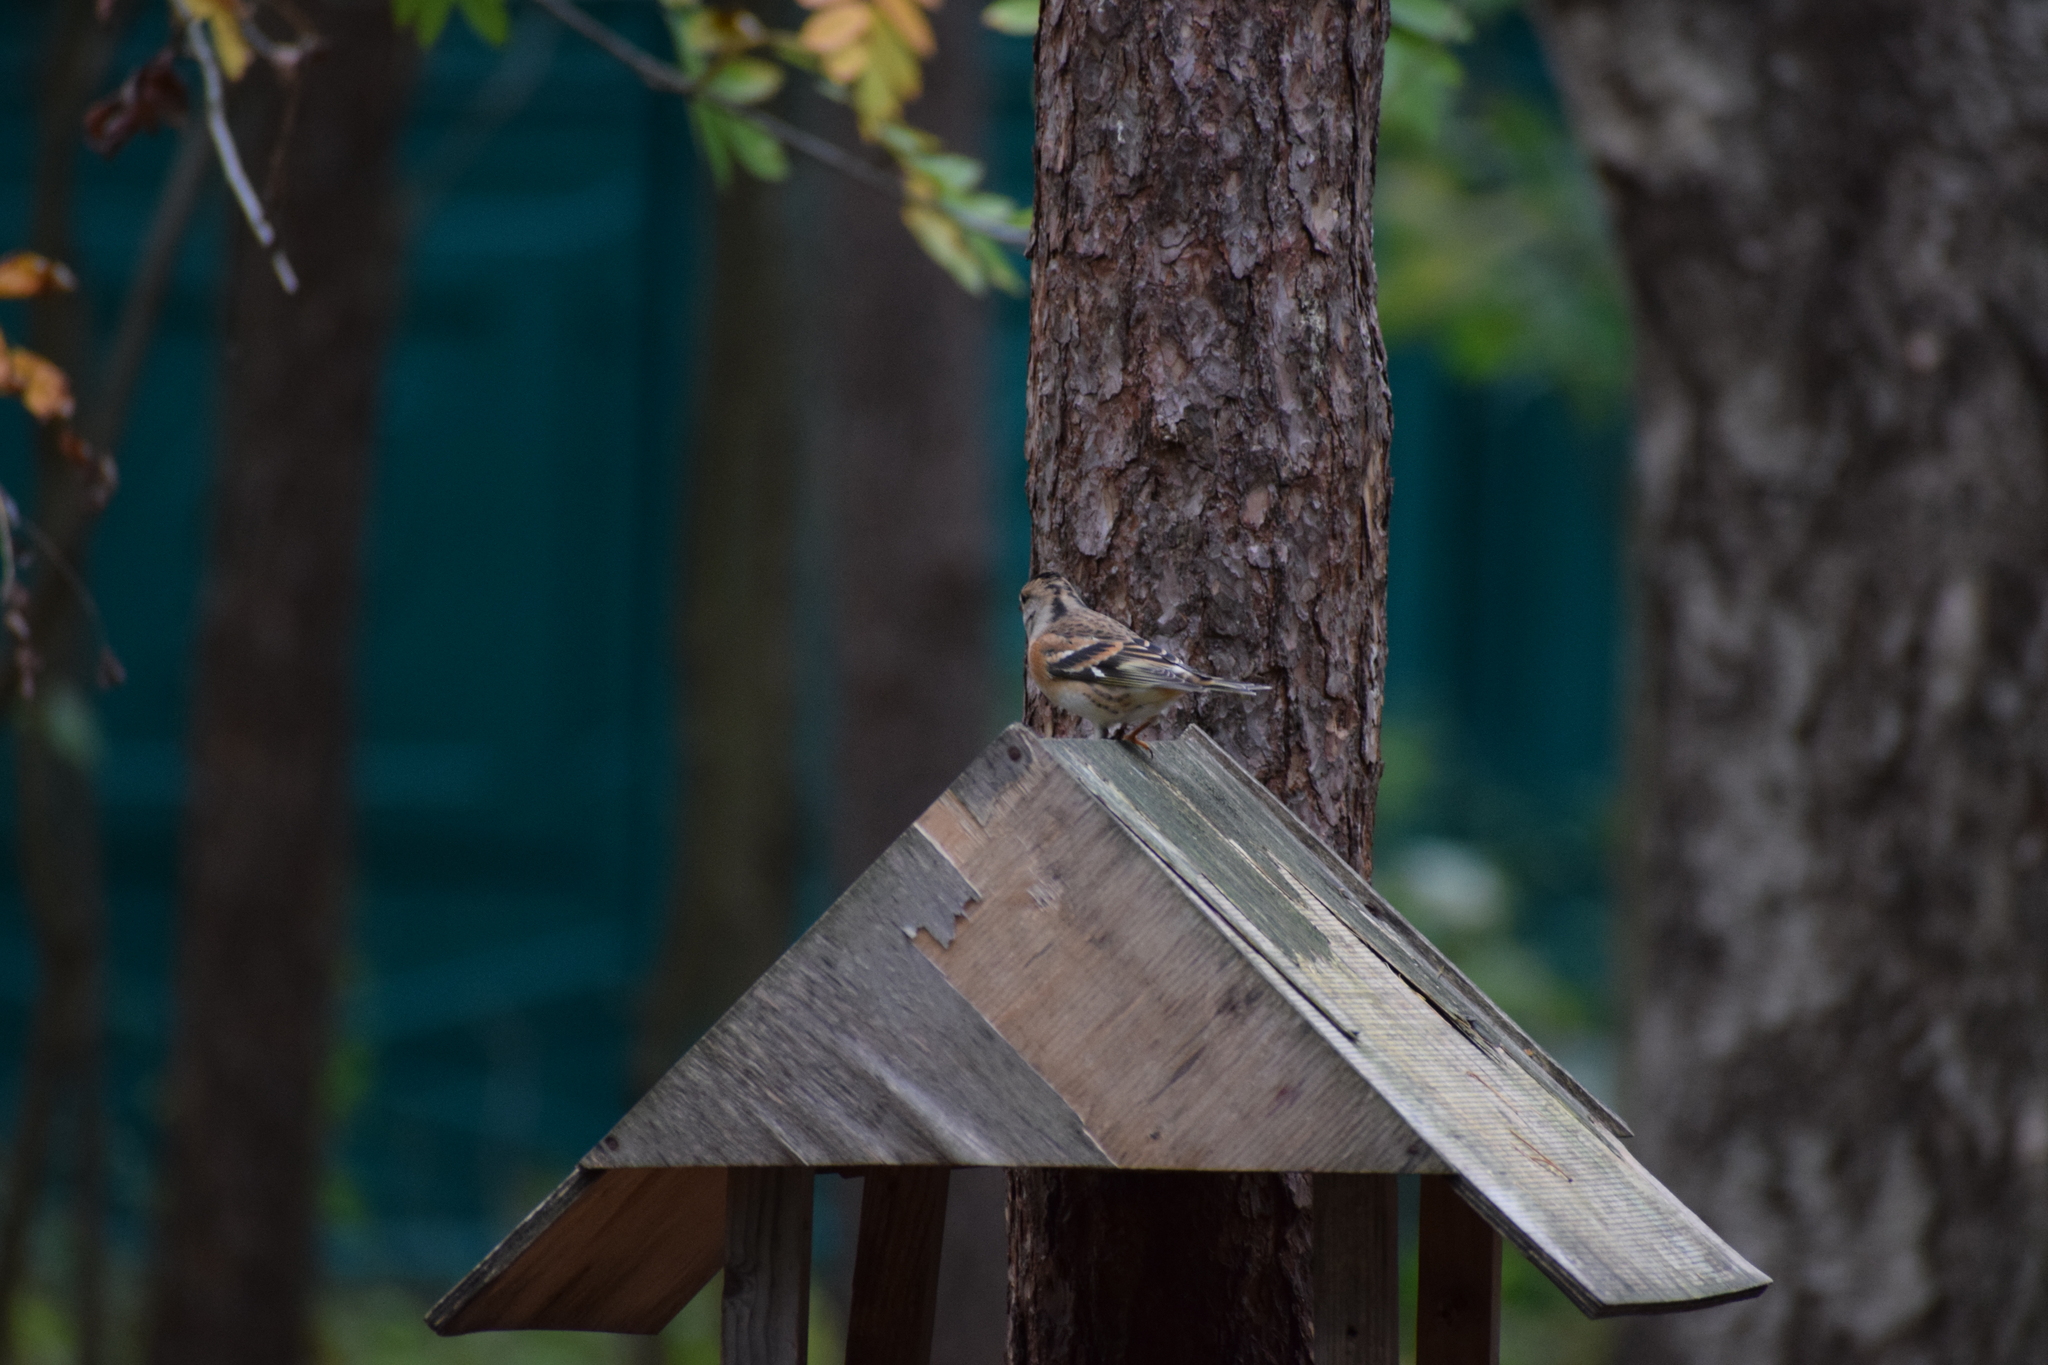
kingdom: Animalia
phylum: Chordata
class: Aves
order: Passeriformes
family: Fringillidae
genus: Fringilla
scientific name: Fringilla montifringilla
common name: Brambling
